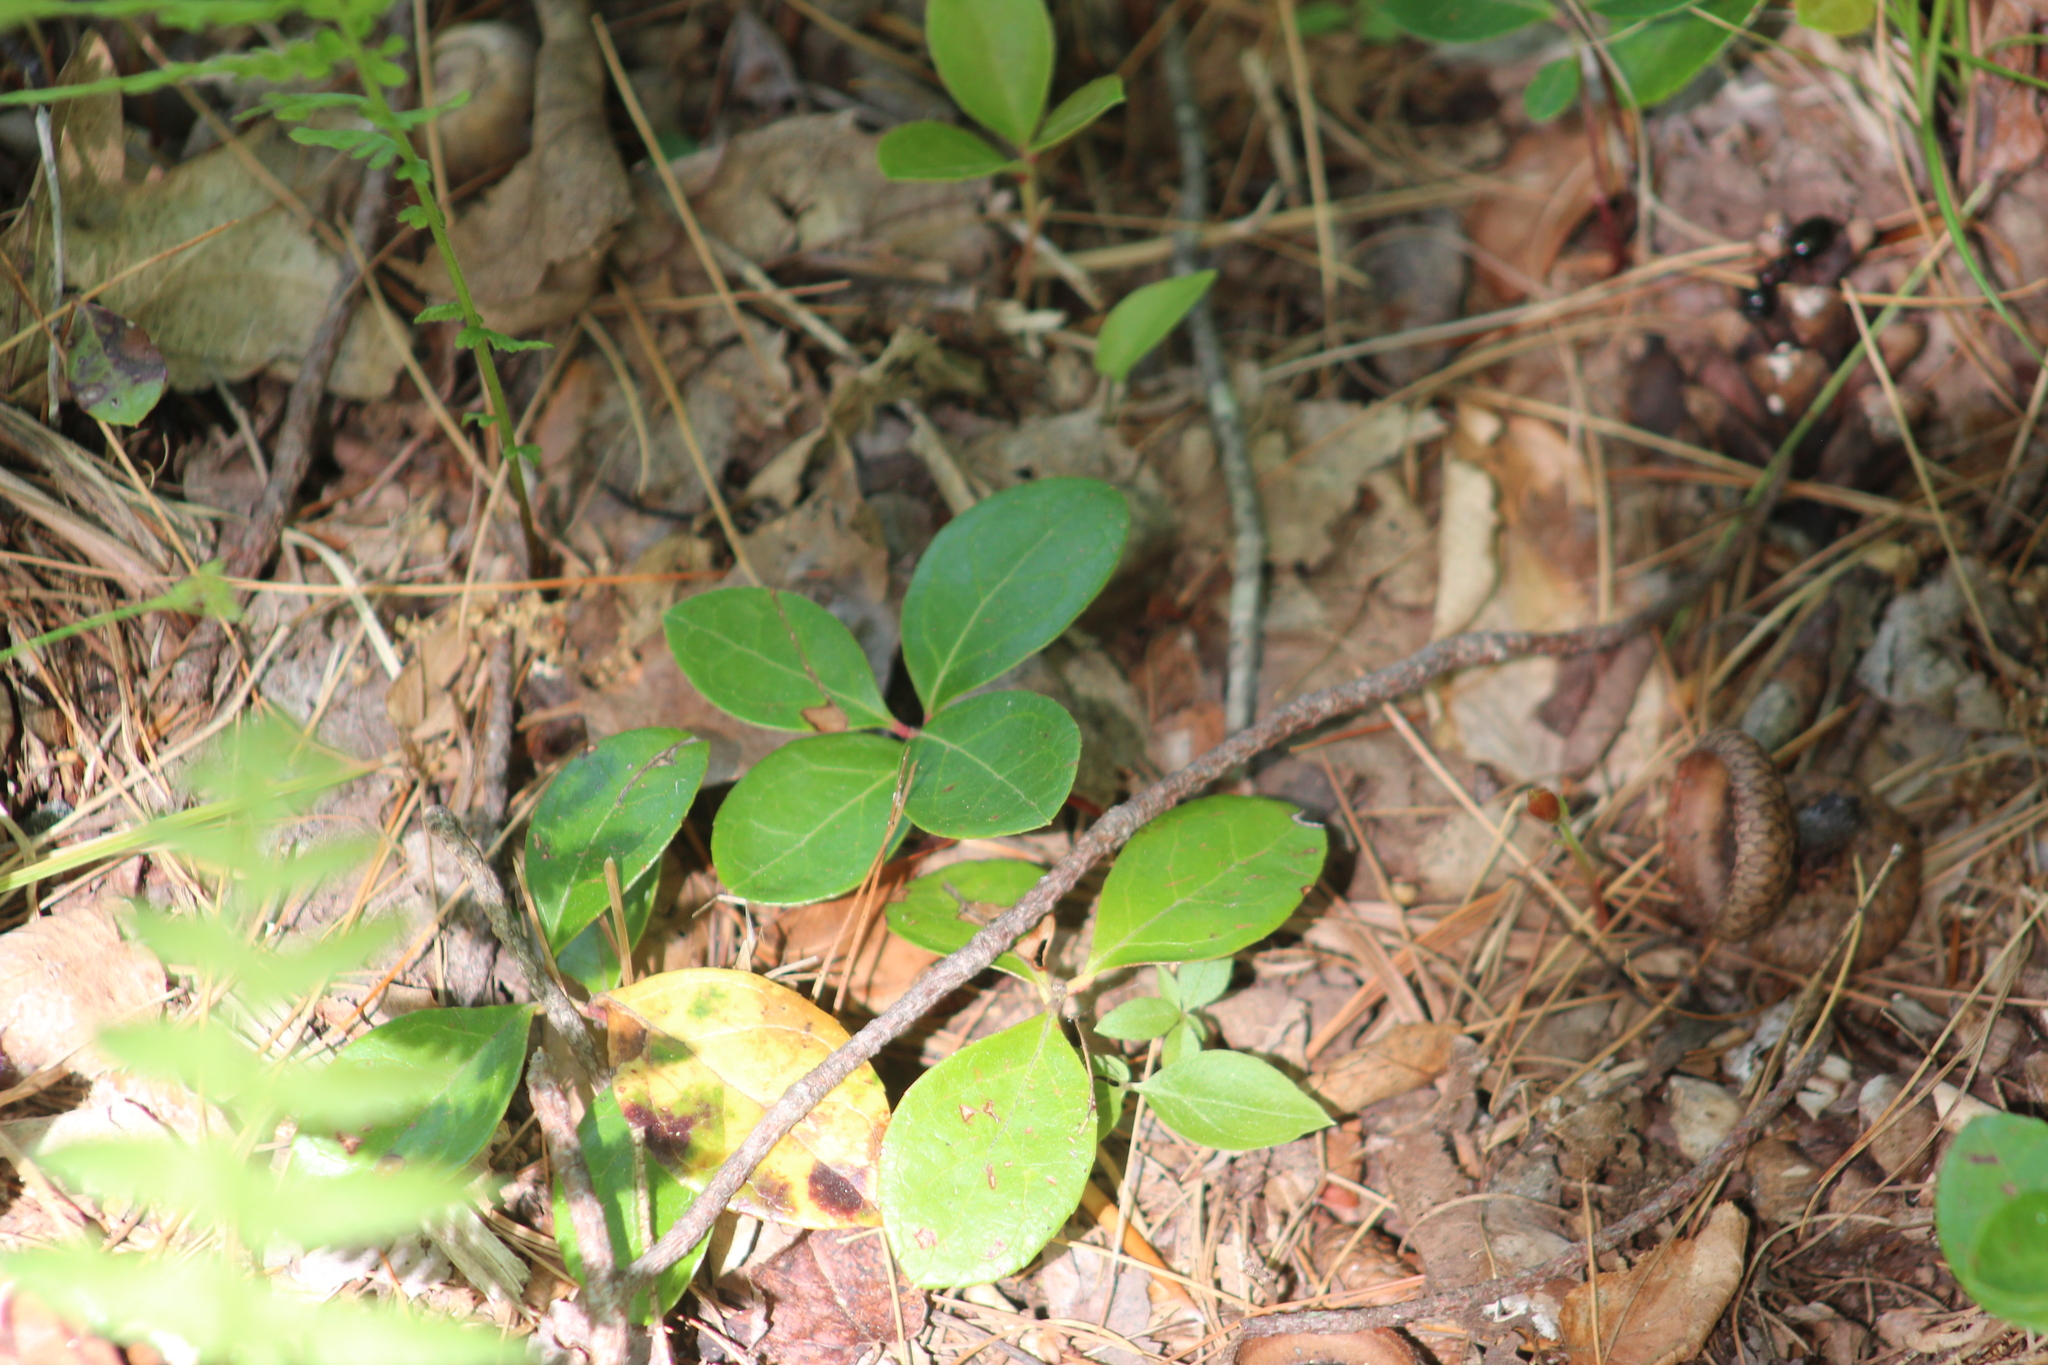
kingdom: Plantae
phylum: Tracheophyta
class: Magnoliopsida
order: Ericales
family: Ericaceae
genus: Gaultheria
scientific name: Gaultheria procumbens
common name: Checkerberry
